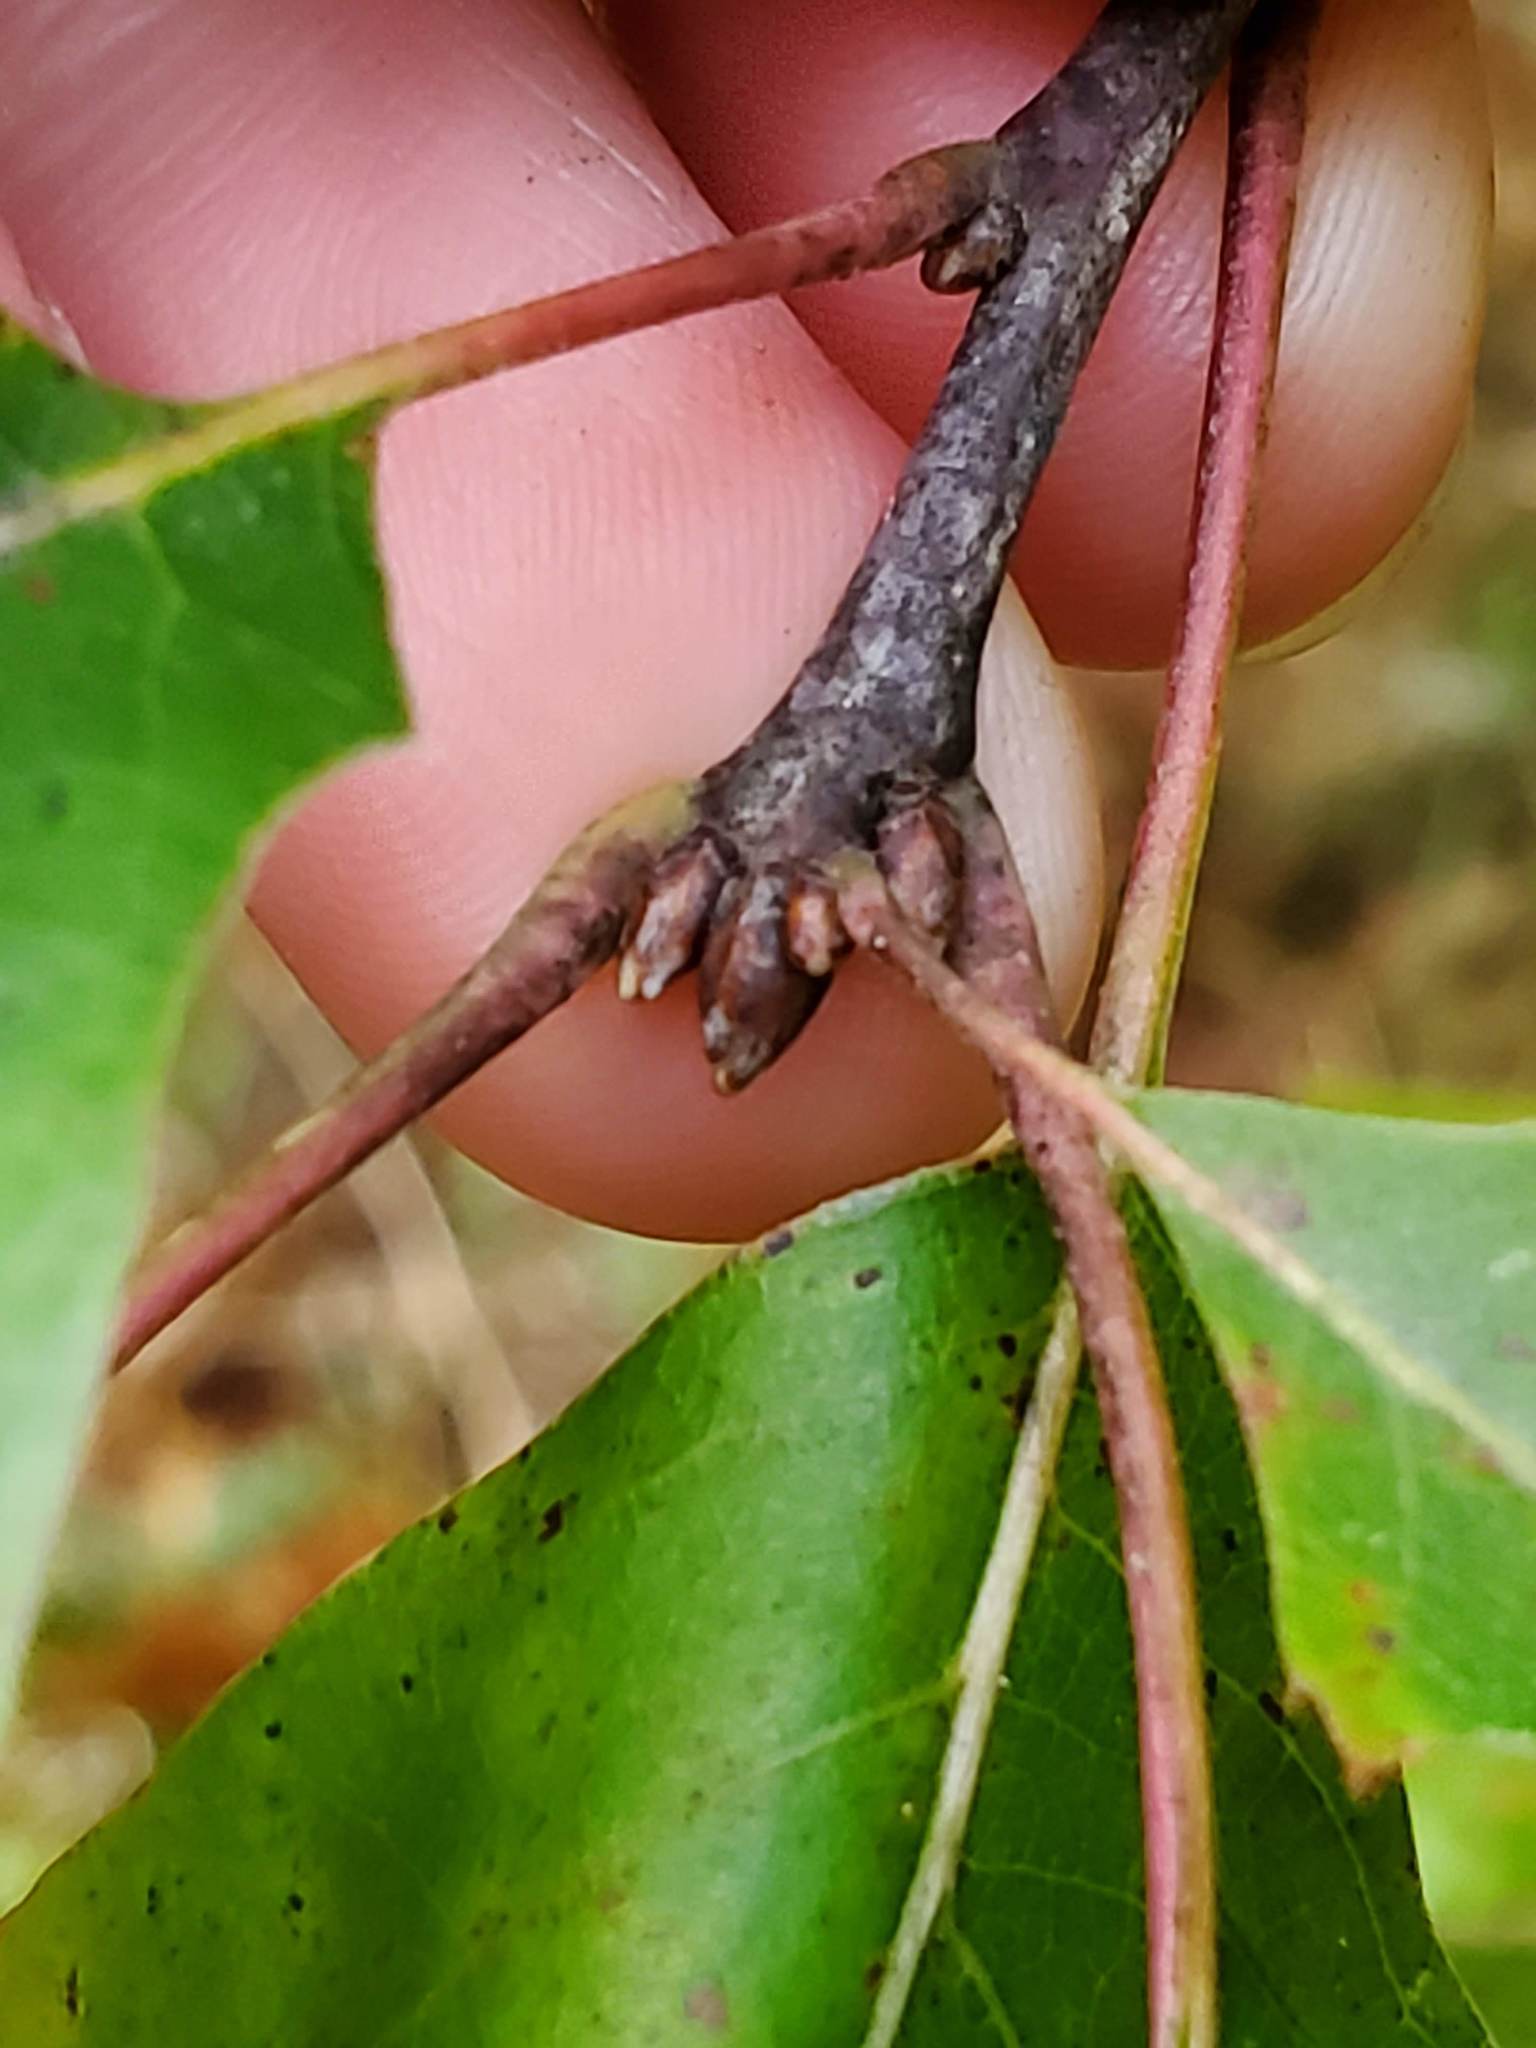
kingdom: Plantae
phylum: Tracheophyta
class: Magnoliopsida
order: Fagales
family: Fagaceae
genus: Quercus
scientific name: Quercus ellipsoidalis
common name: Hill's oak
